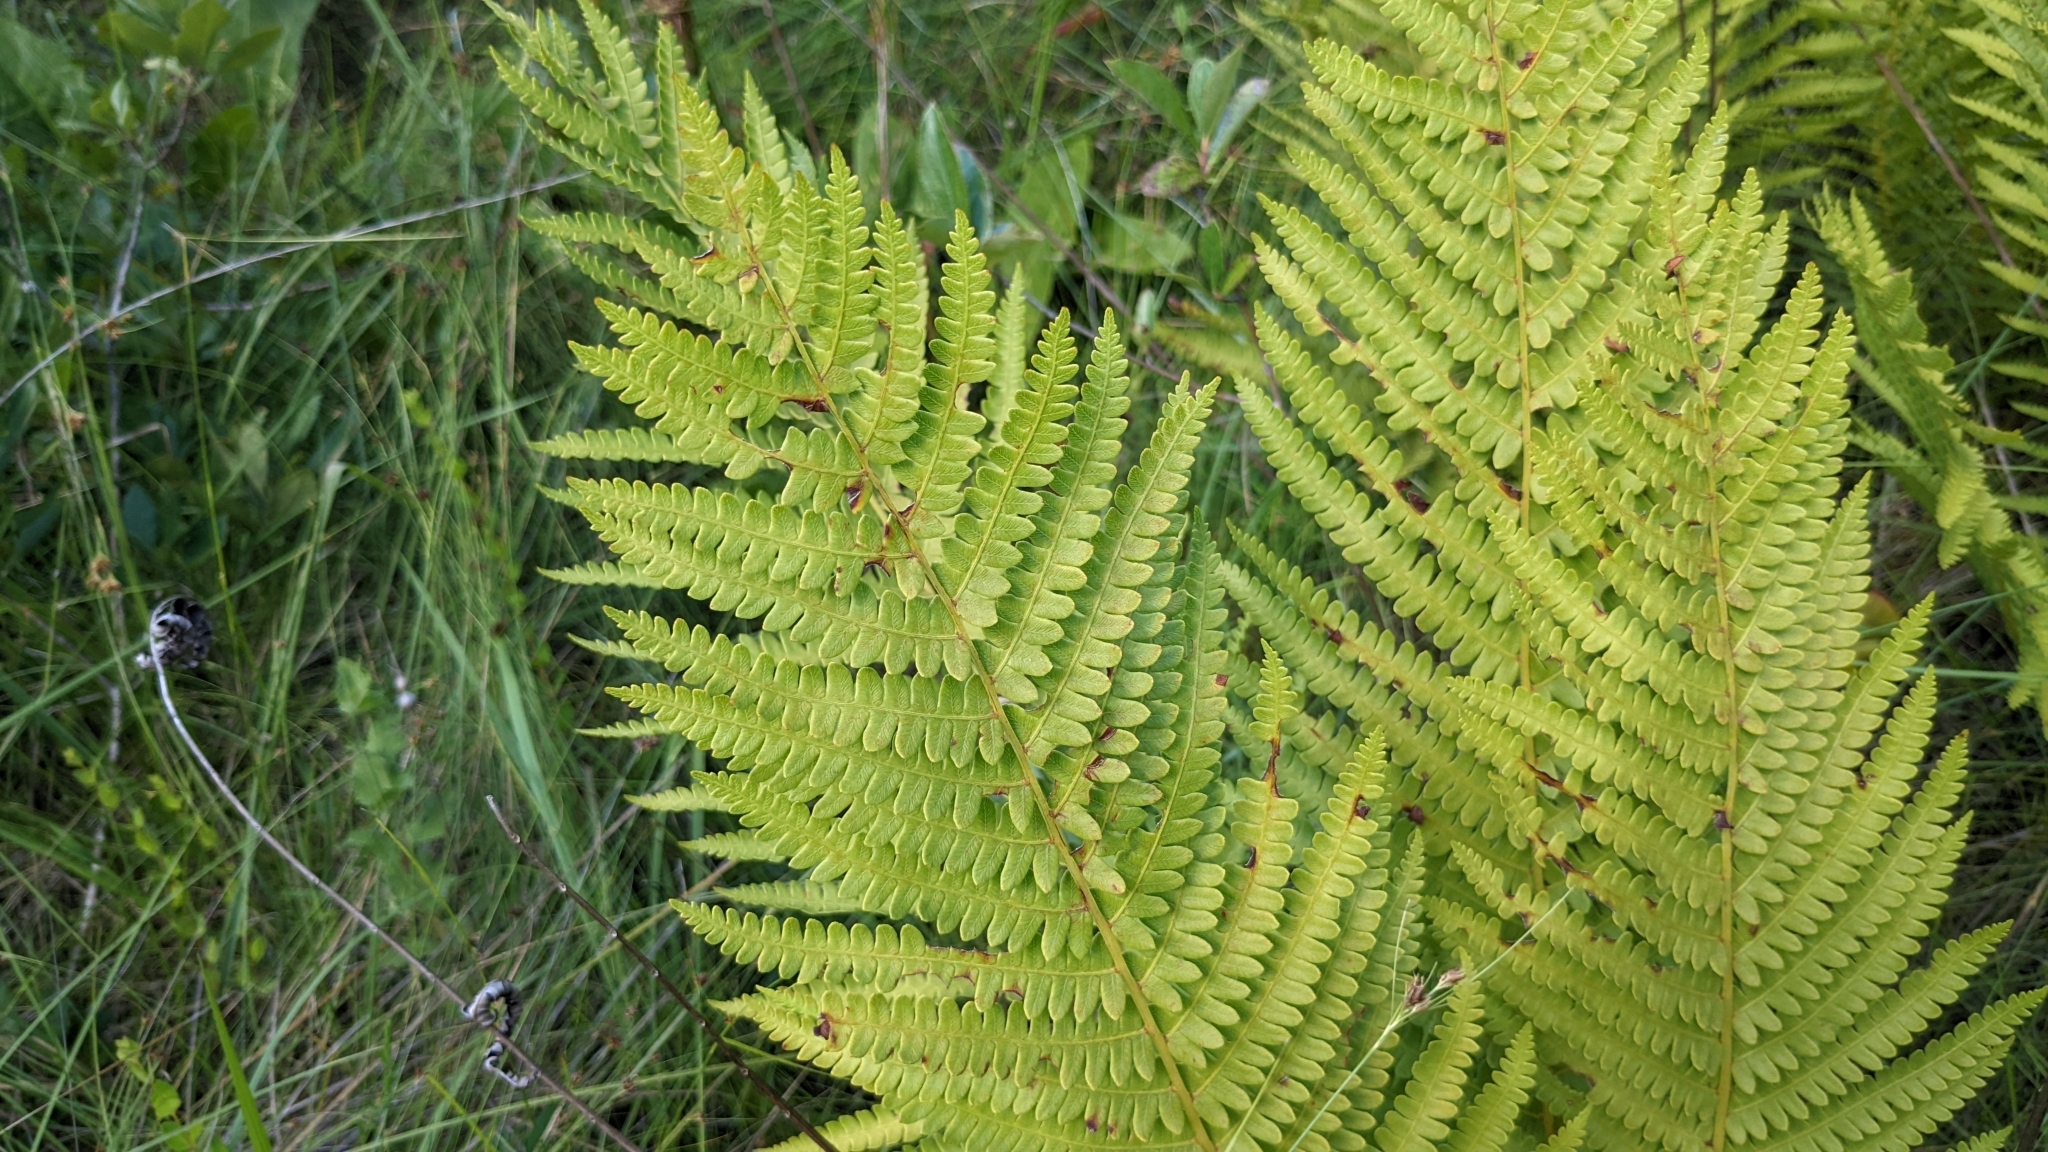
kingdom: Plantae
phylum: Tracheophyta
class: Polypodiopsida
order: Osmundales
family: Osmundaceae
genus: Osmundastrum
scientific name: Osmundastrum cinnamomeum
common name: Cinnamon fern
